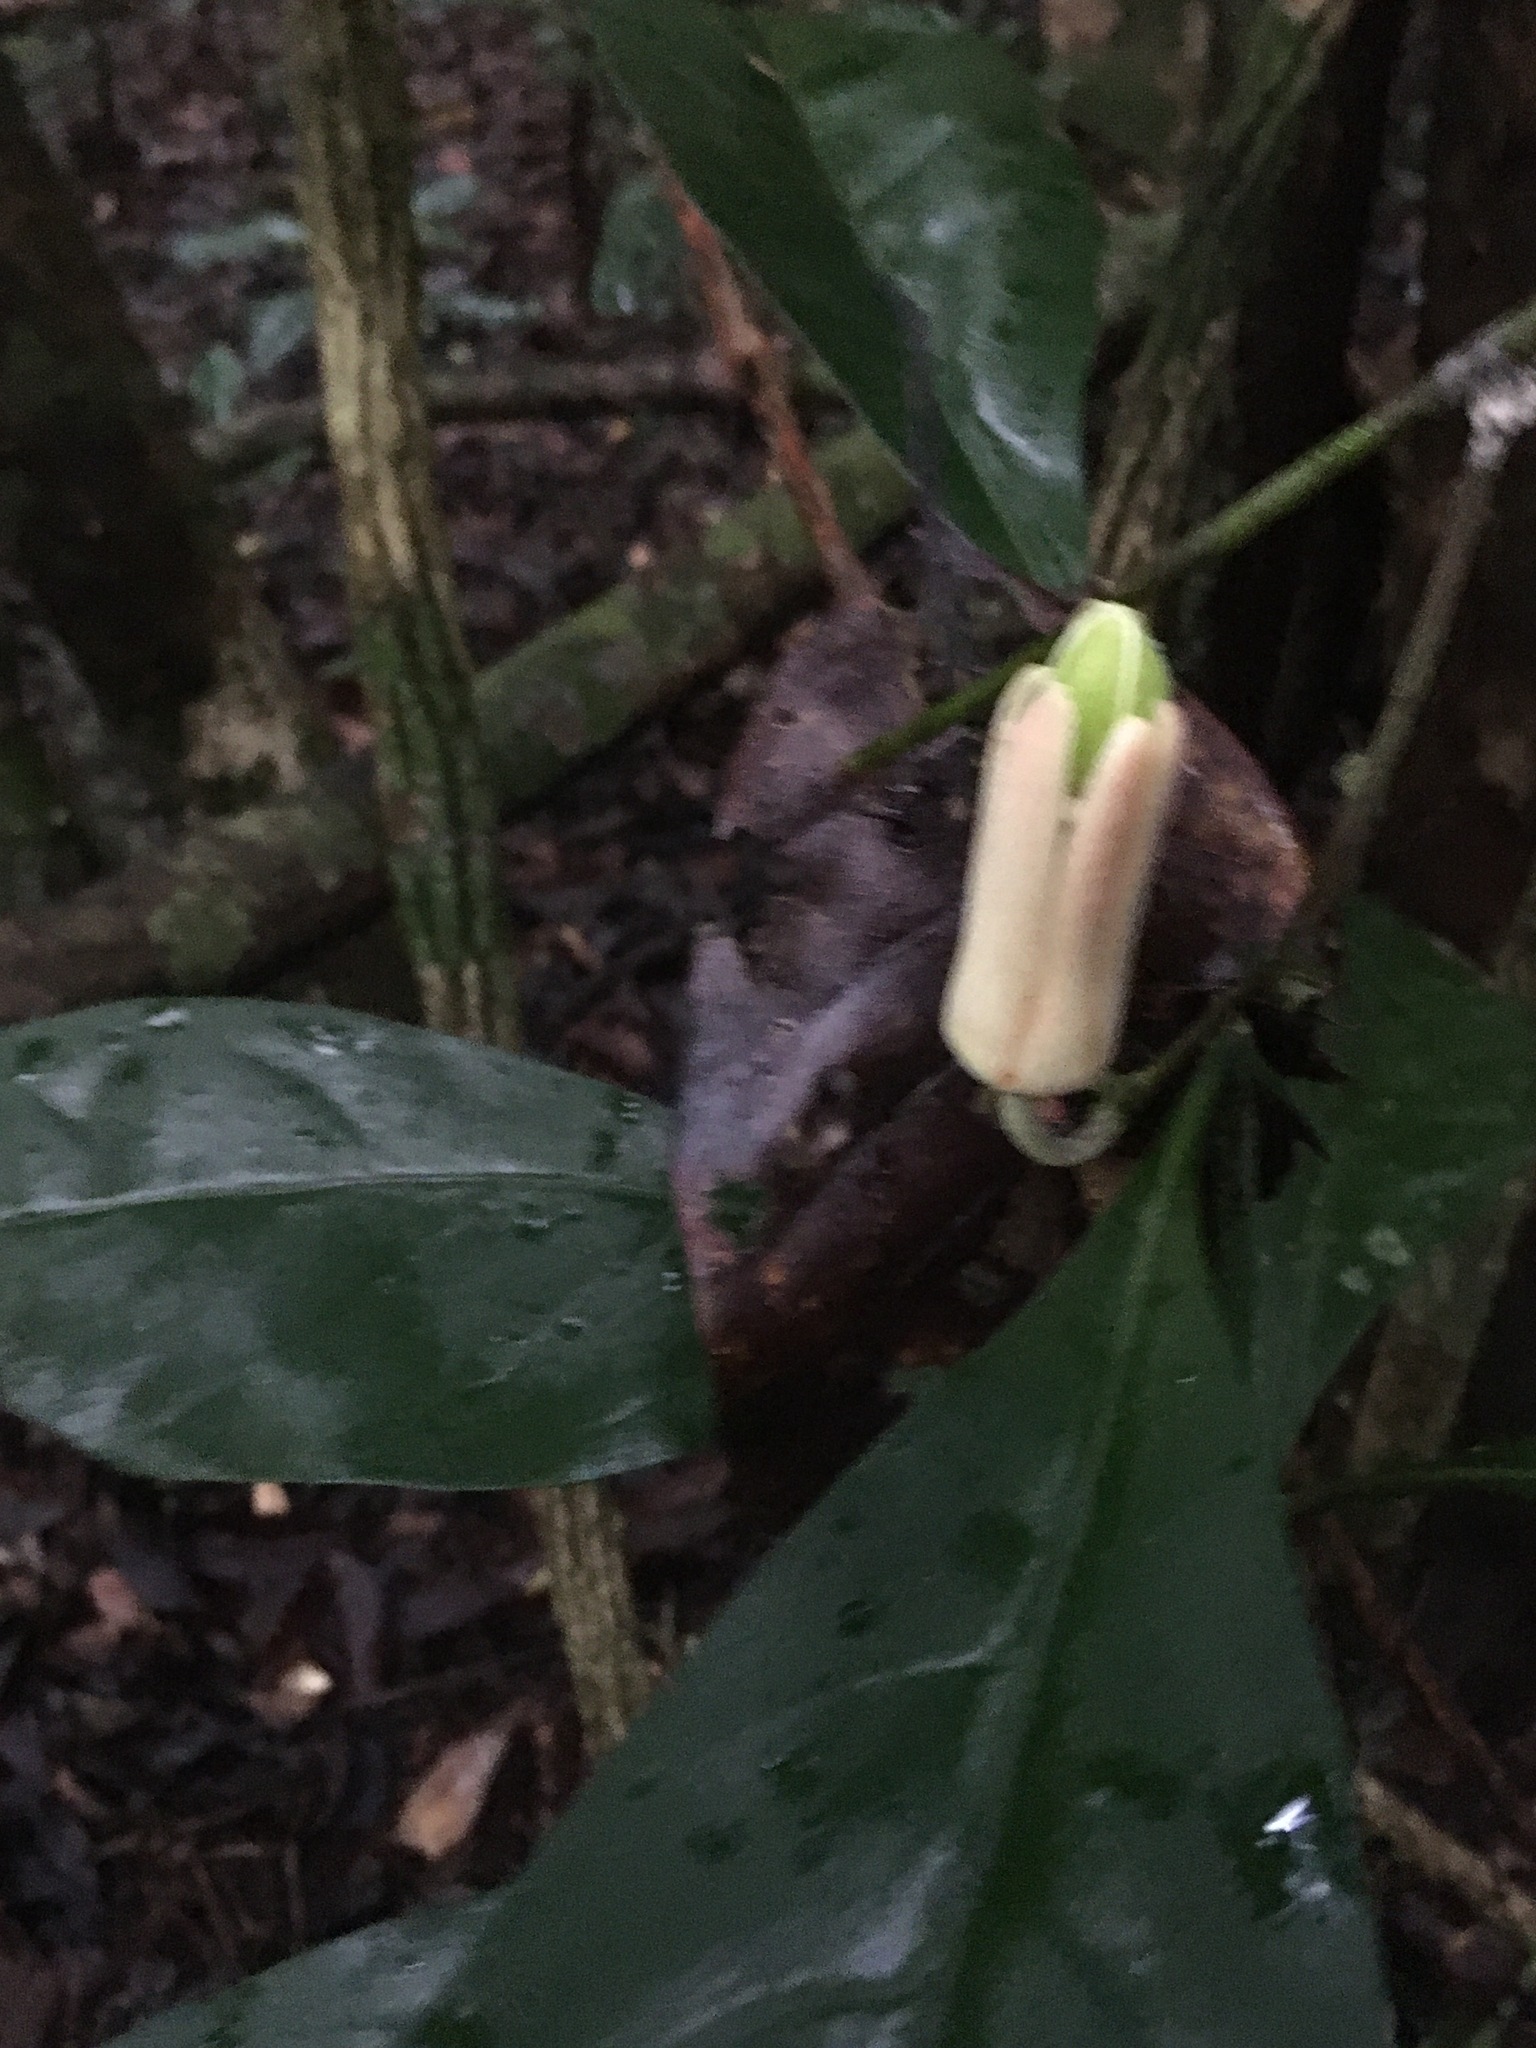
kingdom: Plantae
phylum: Tracheophyta
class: Magnoliopsida
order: Malpighiales
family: Passifloraceae
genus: Passiflora
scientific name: Passiflora contracta
